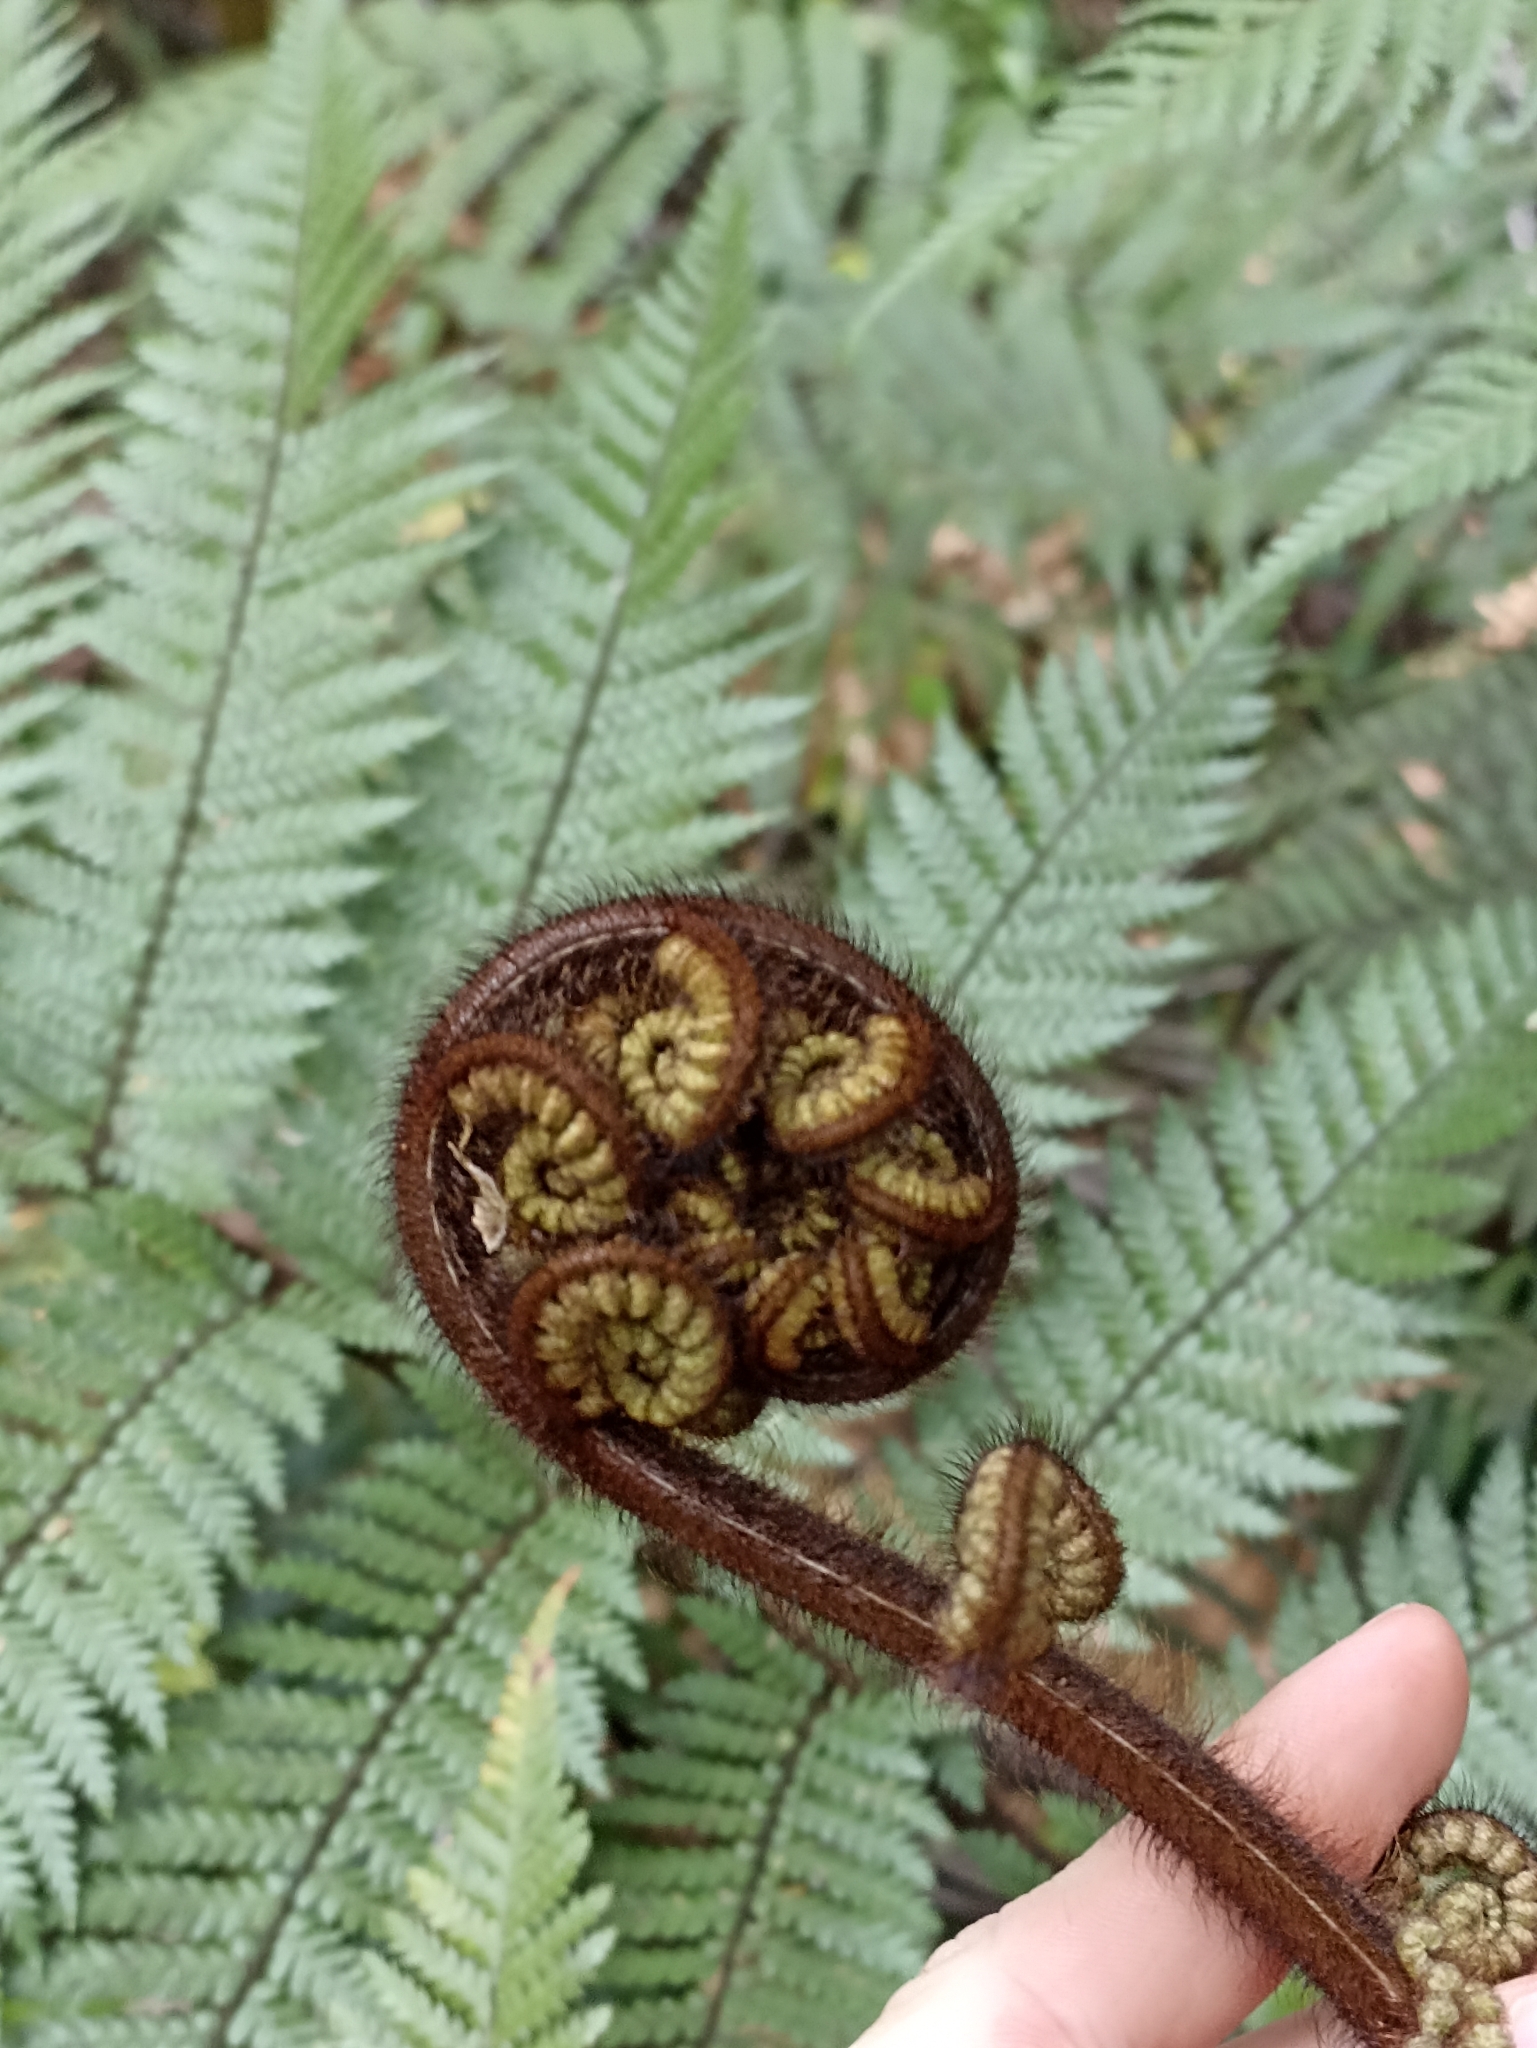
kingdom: Plantae
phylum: Tracheophyta
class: Polypodiopsida
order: Cyatheales
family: Dicksoniaceae
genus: Dicksonia
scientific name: Dicksonia squarrosa
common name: Hard treefern
